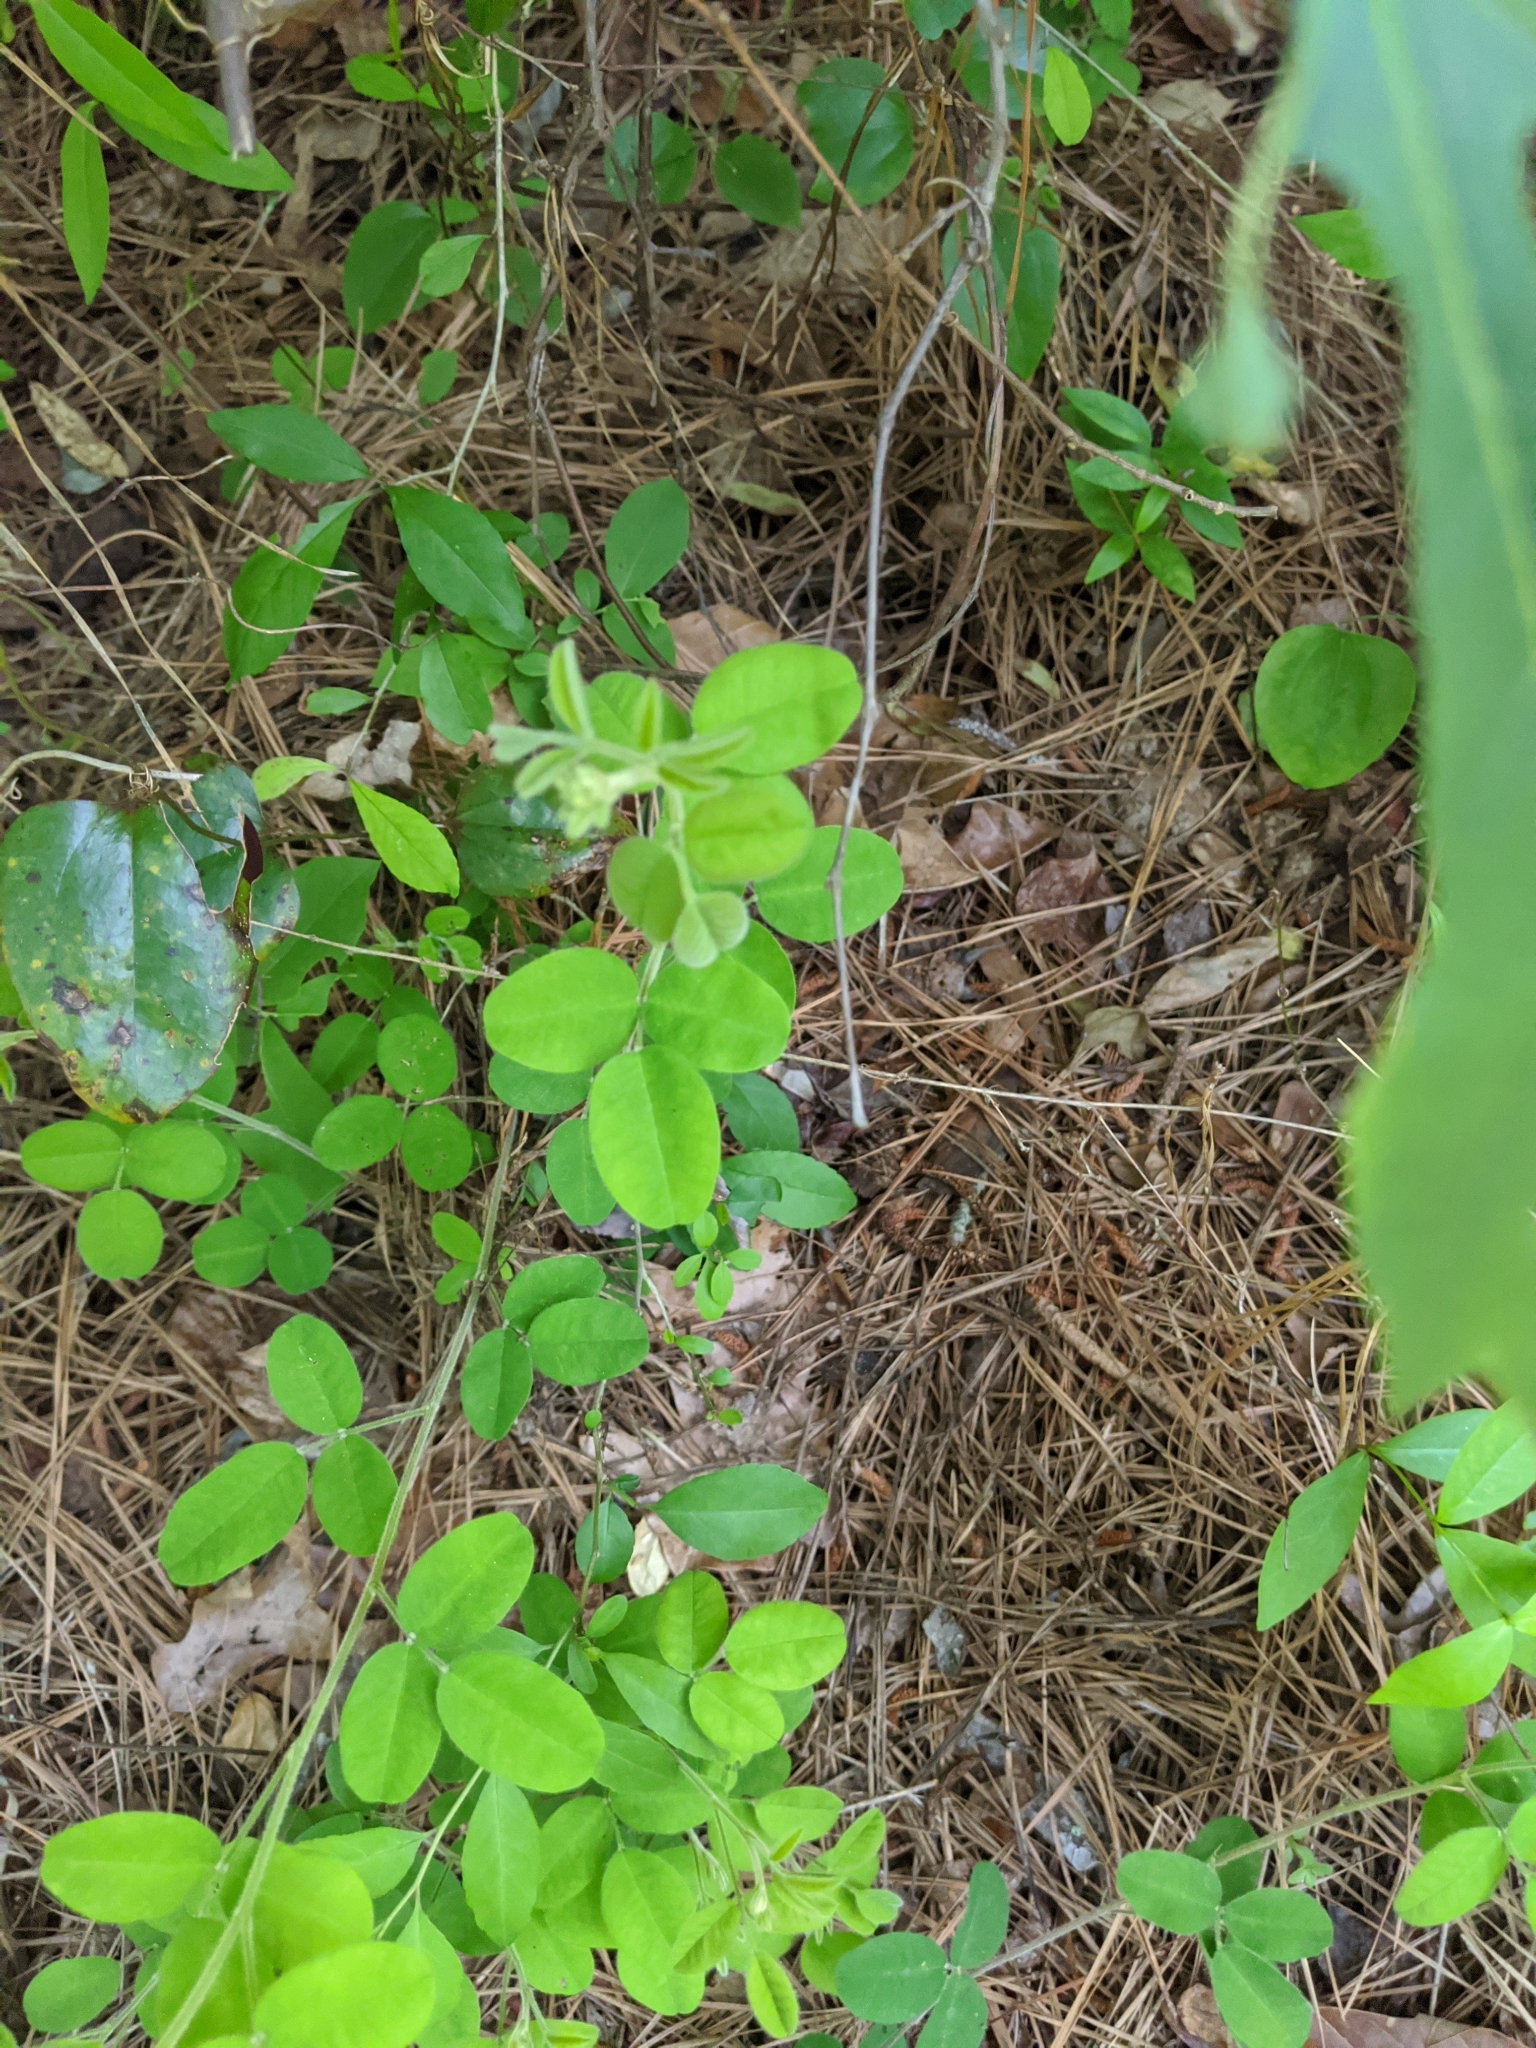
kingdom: Plantae
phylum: Tracheophyta
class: Magnoliopsida
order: Fabales
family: Fabaceae
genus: Lespedeza
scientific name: Lespedeza procumbens
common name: Downy trailing bush-clover
